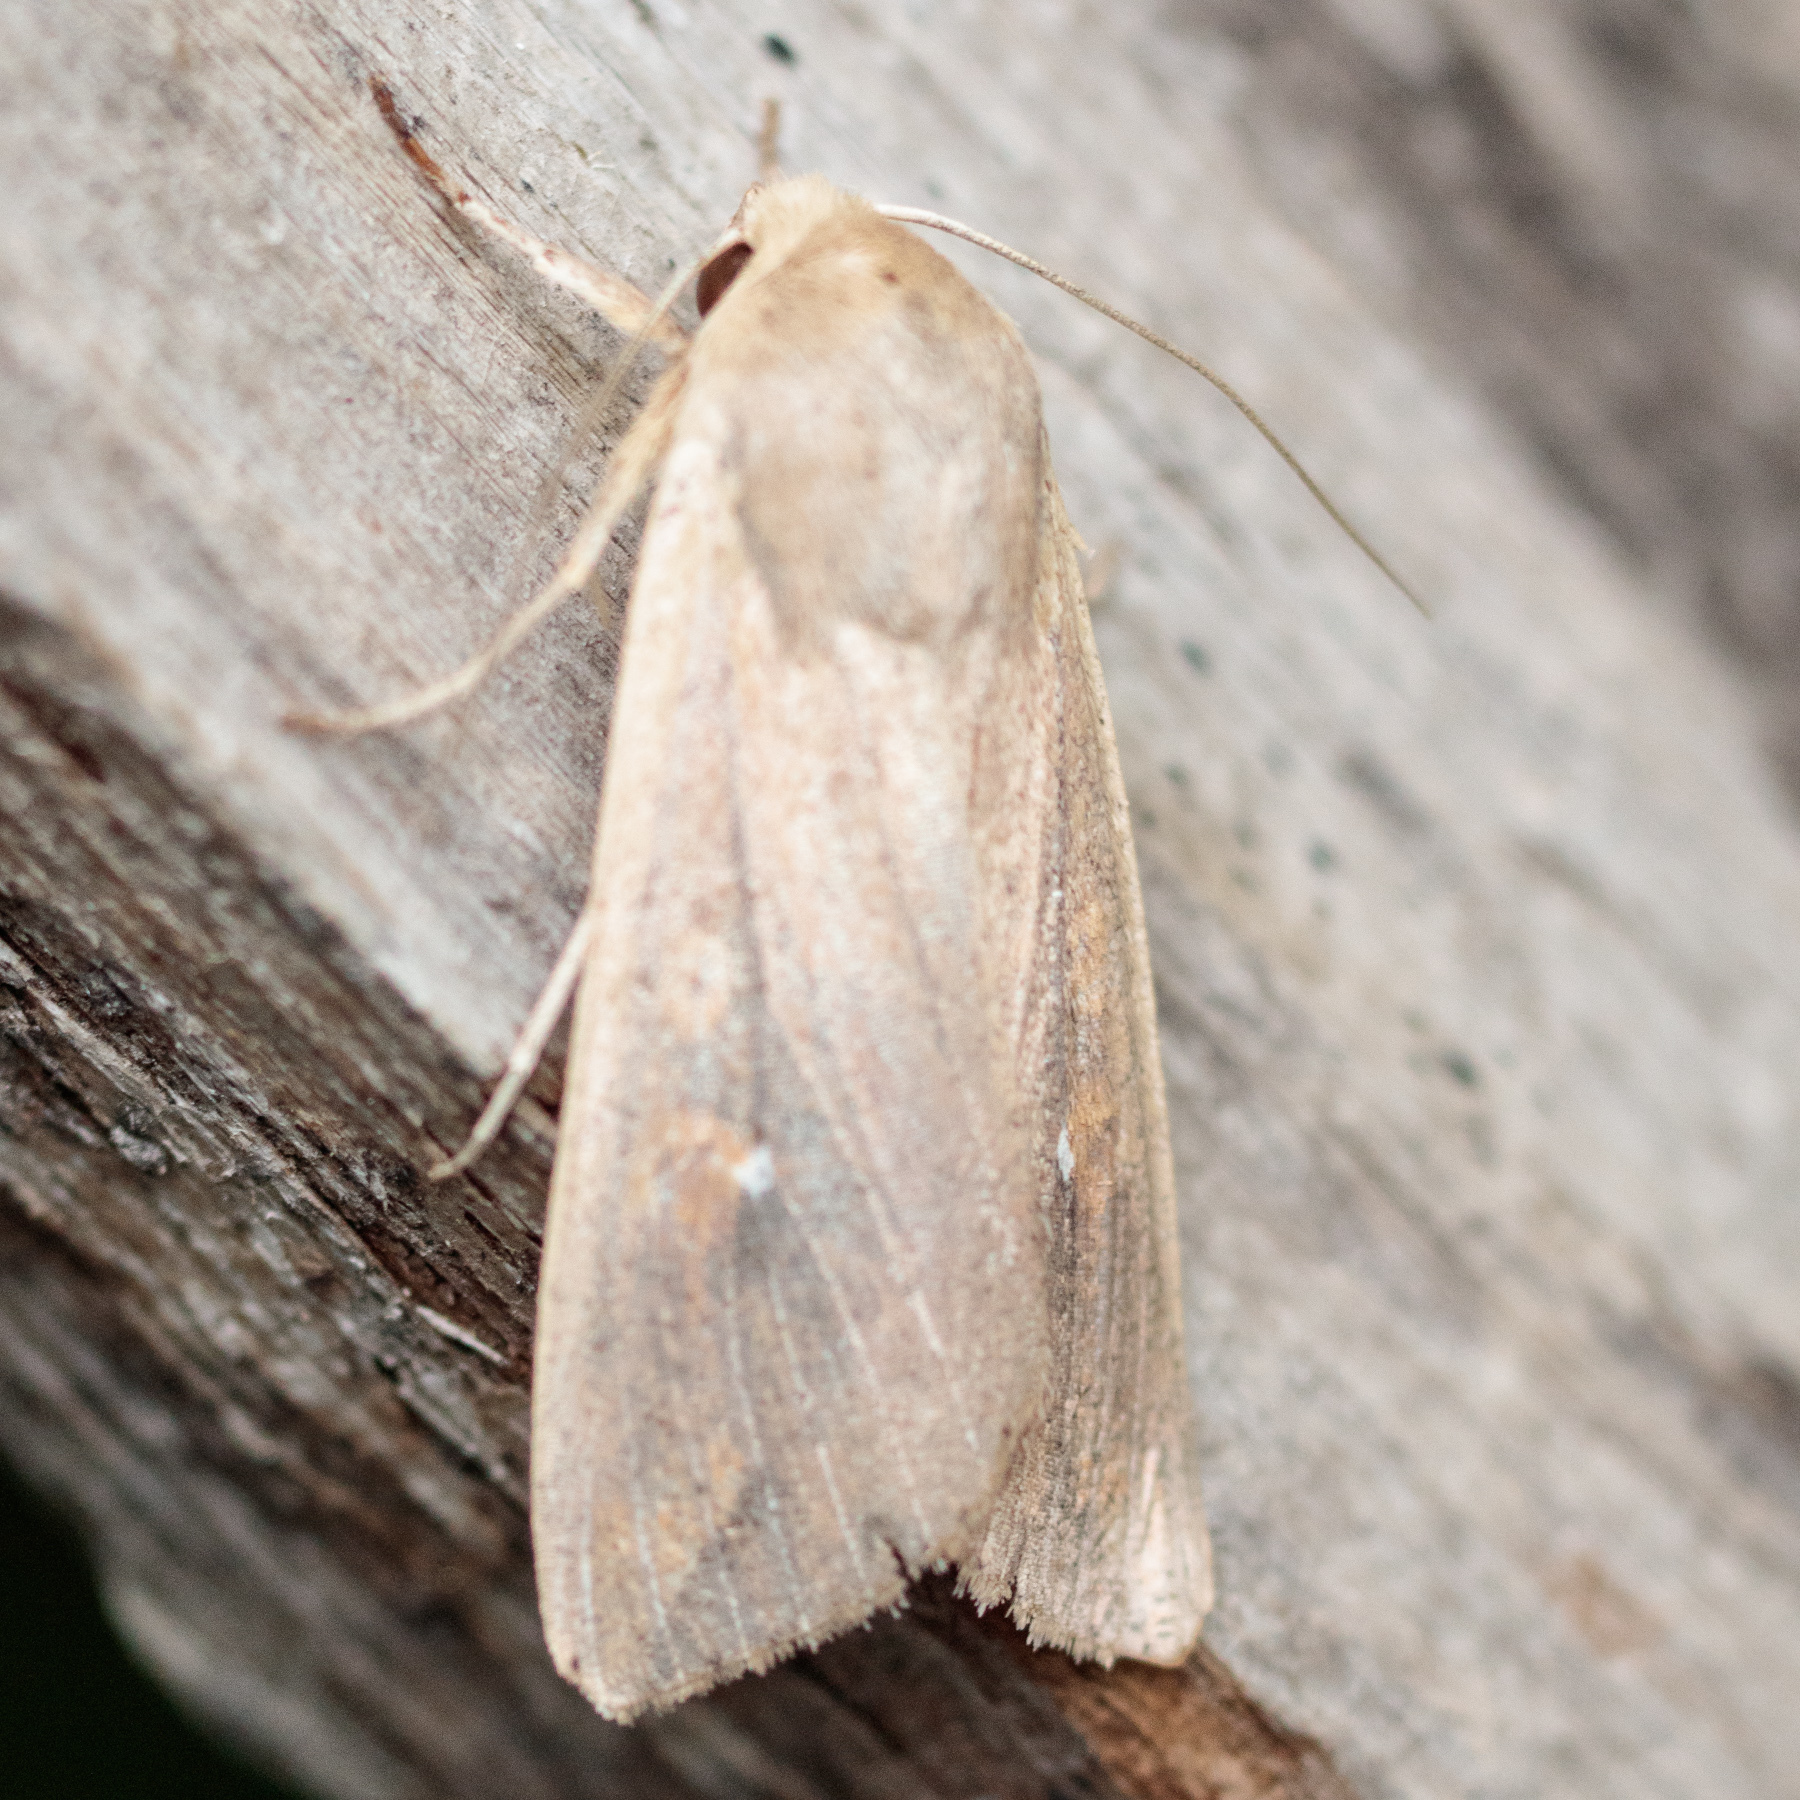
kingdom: Animalia
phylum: Arthropoda
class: Insecta
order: Lepidoptera
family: Noctuidae
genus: Mythimna
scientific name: Mythimna unipuncta
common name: White-speck
